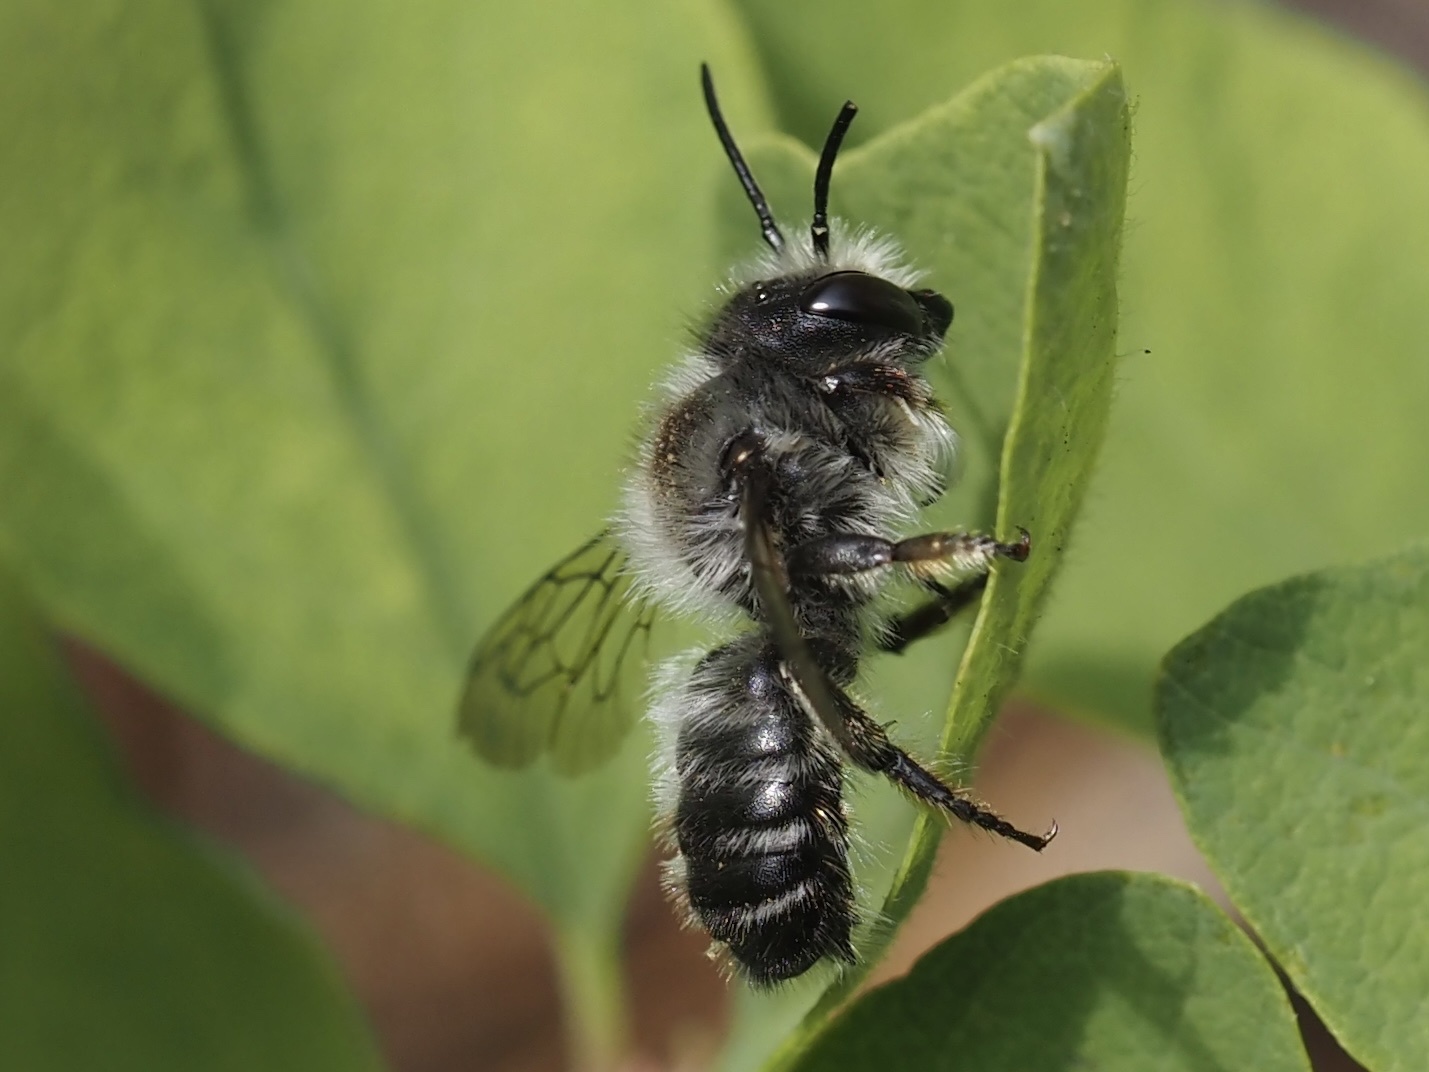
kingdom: Animalia
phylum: Arthropoda
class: Insecta
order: Hymenoptera
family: Megachilidae
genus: Megachile
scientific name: Megachile melanophaea
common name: Black-and-gray leafcutter bee
